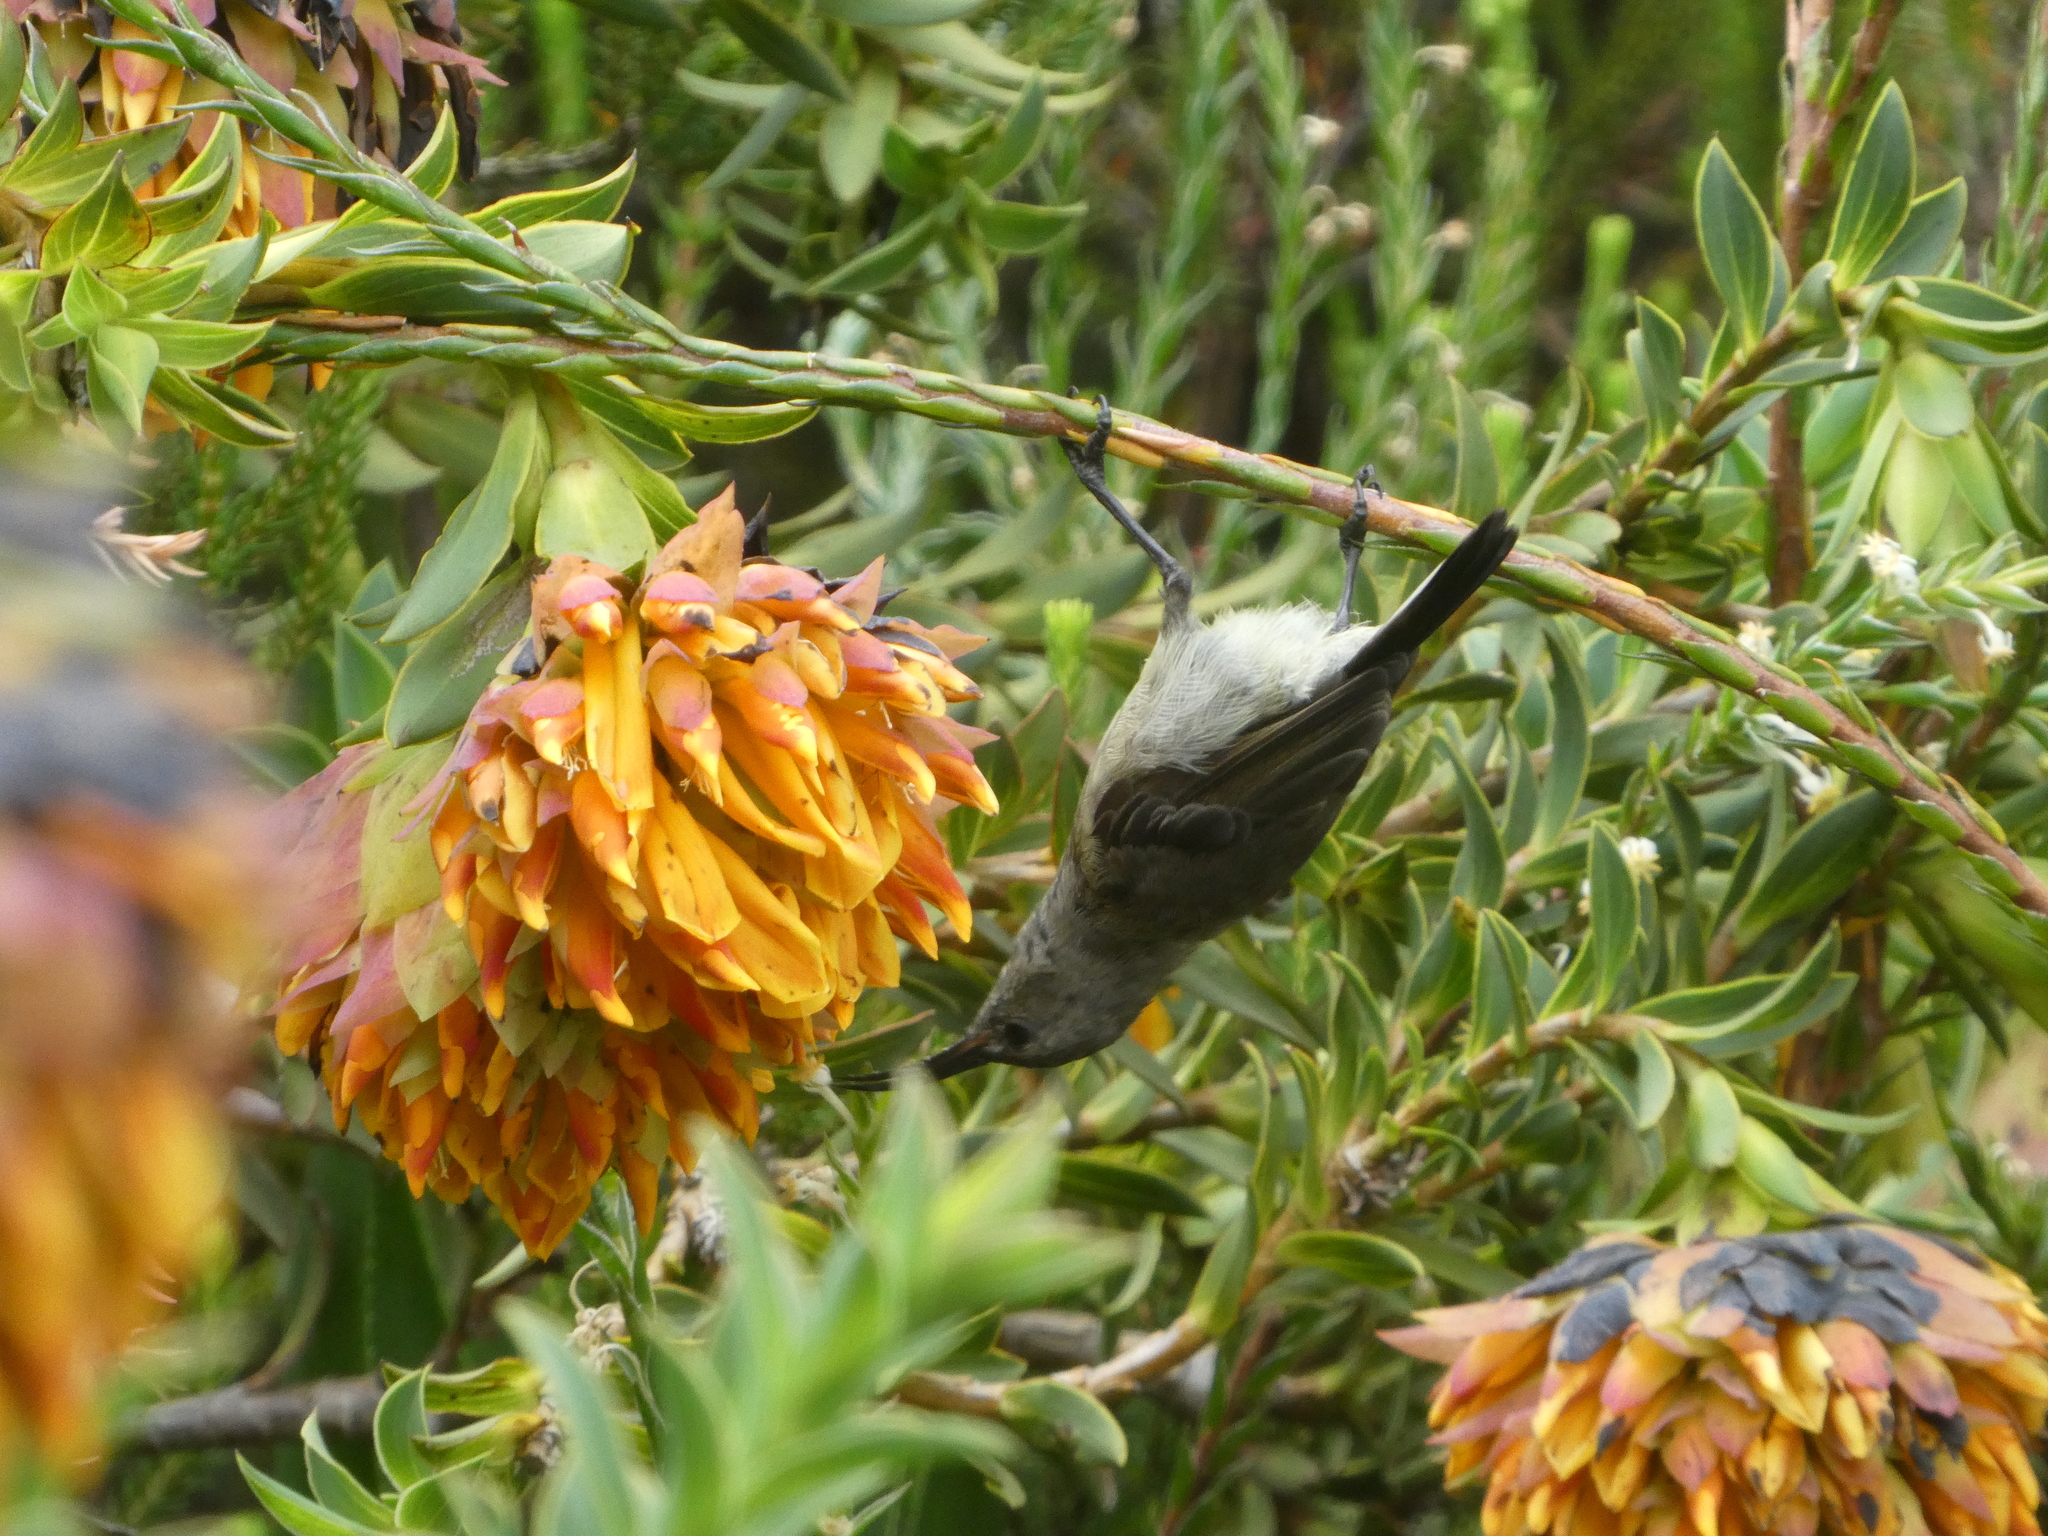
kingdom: Animalia
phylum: Chordata
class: Aves
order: Passeriformes
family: Nectariniidae
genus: Cinnyris
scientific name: Cinnyris chalybeus
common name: Southern double-collared sunbird
